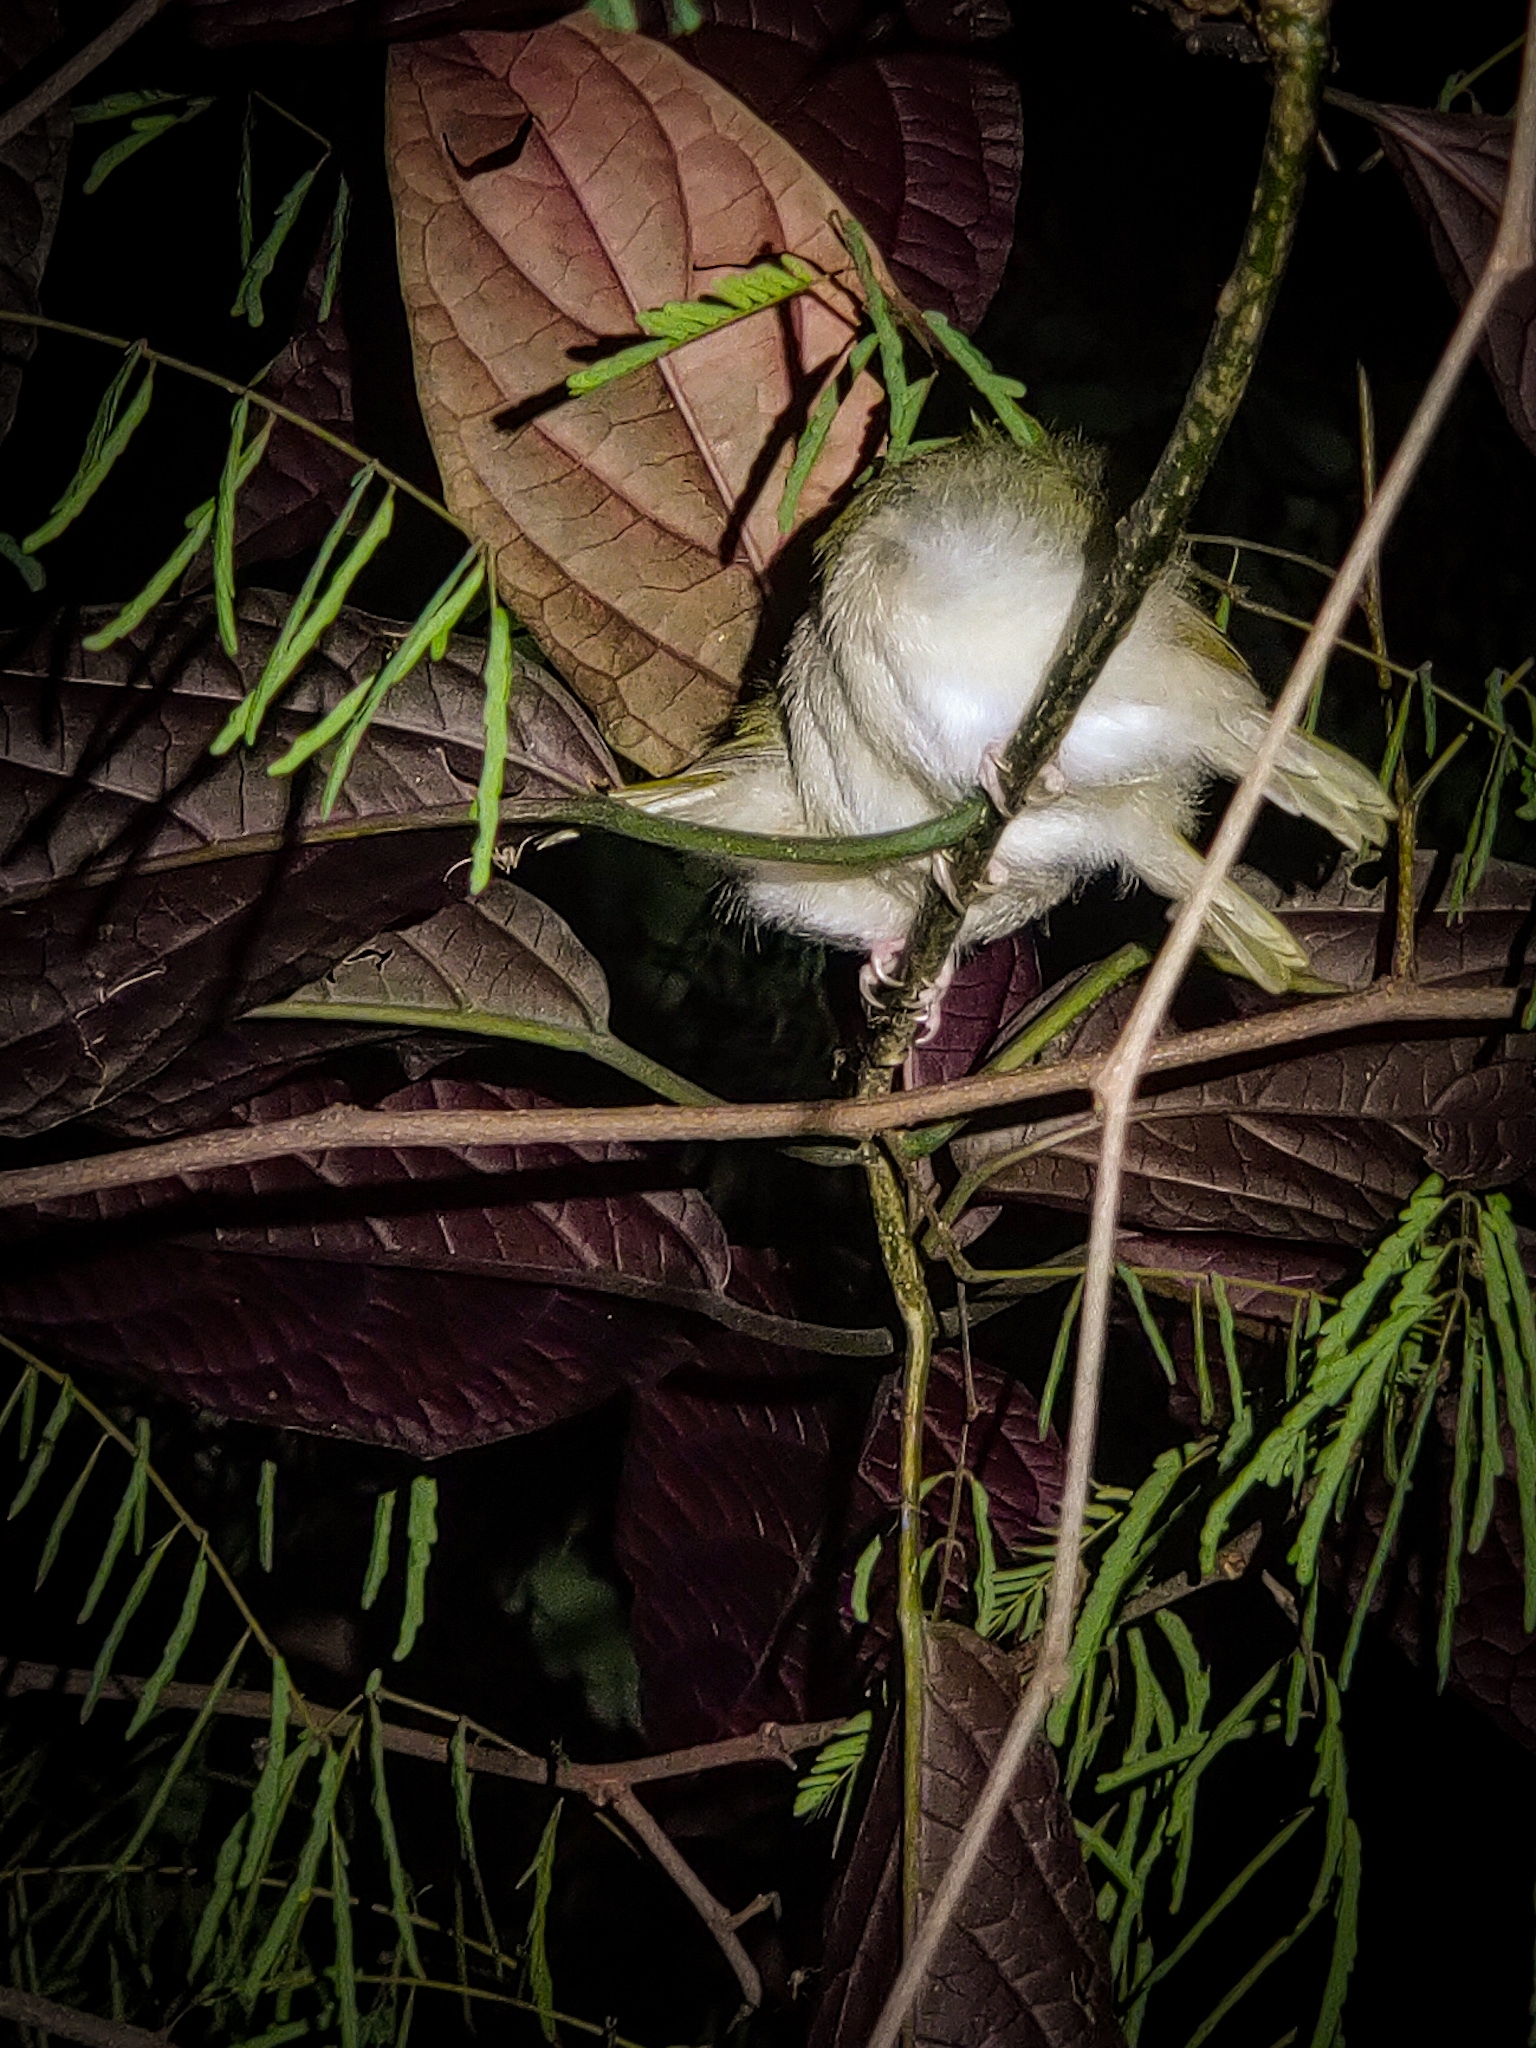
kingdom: Animalia
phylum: Chordata
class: Aves
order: Passeriformes
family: Cisticolidae
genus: Orthotomus
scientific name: Orthotomus sutorius
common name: Common tailorbird
